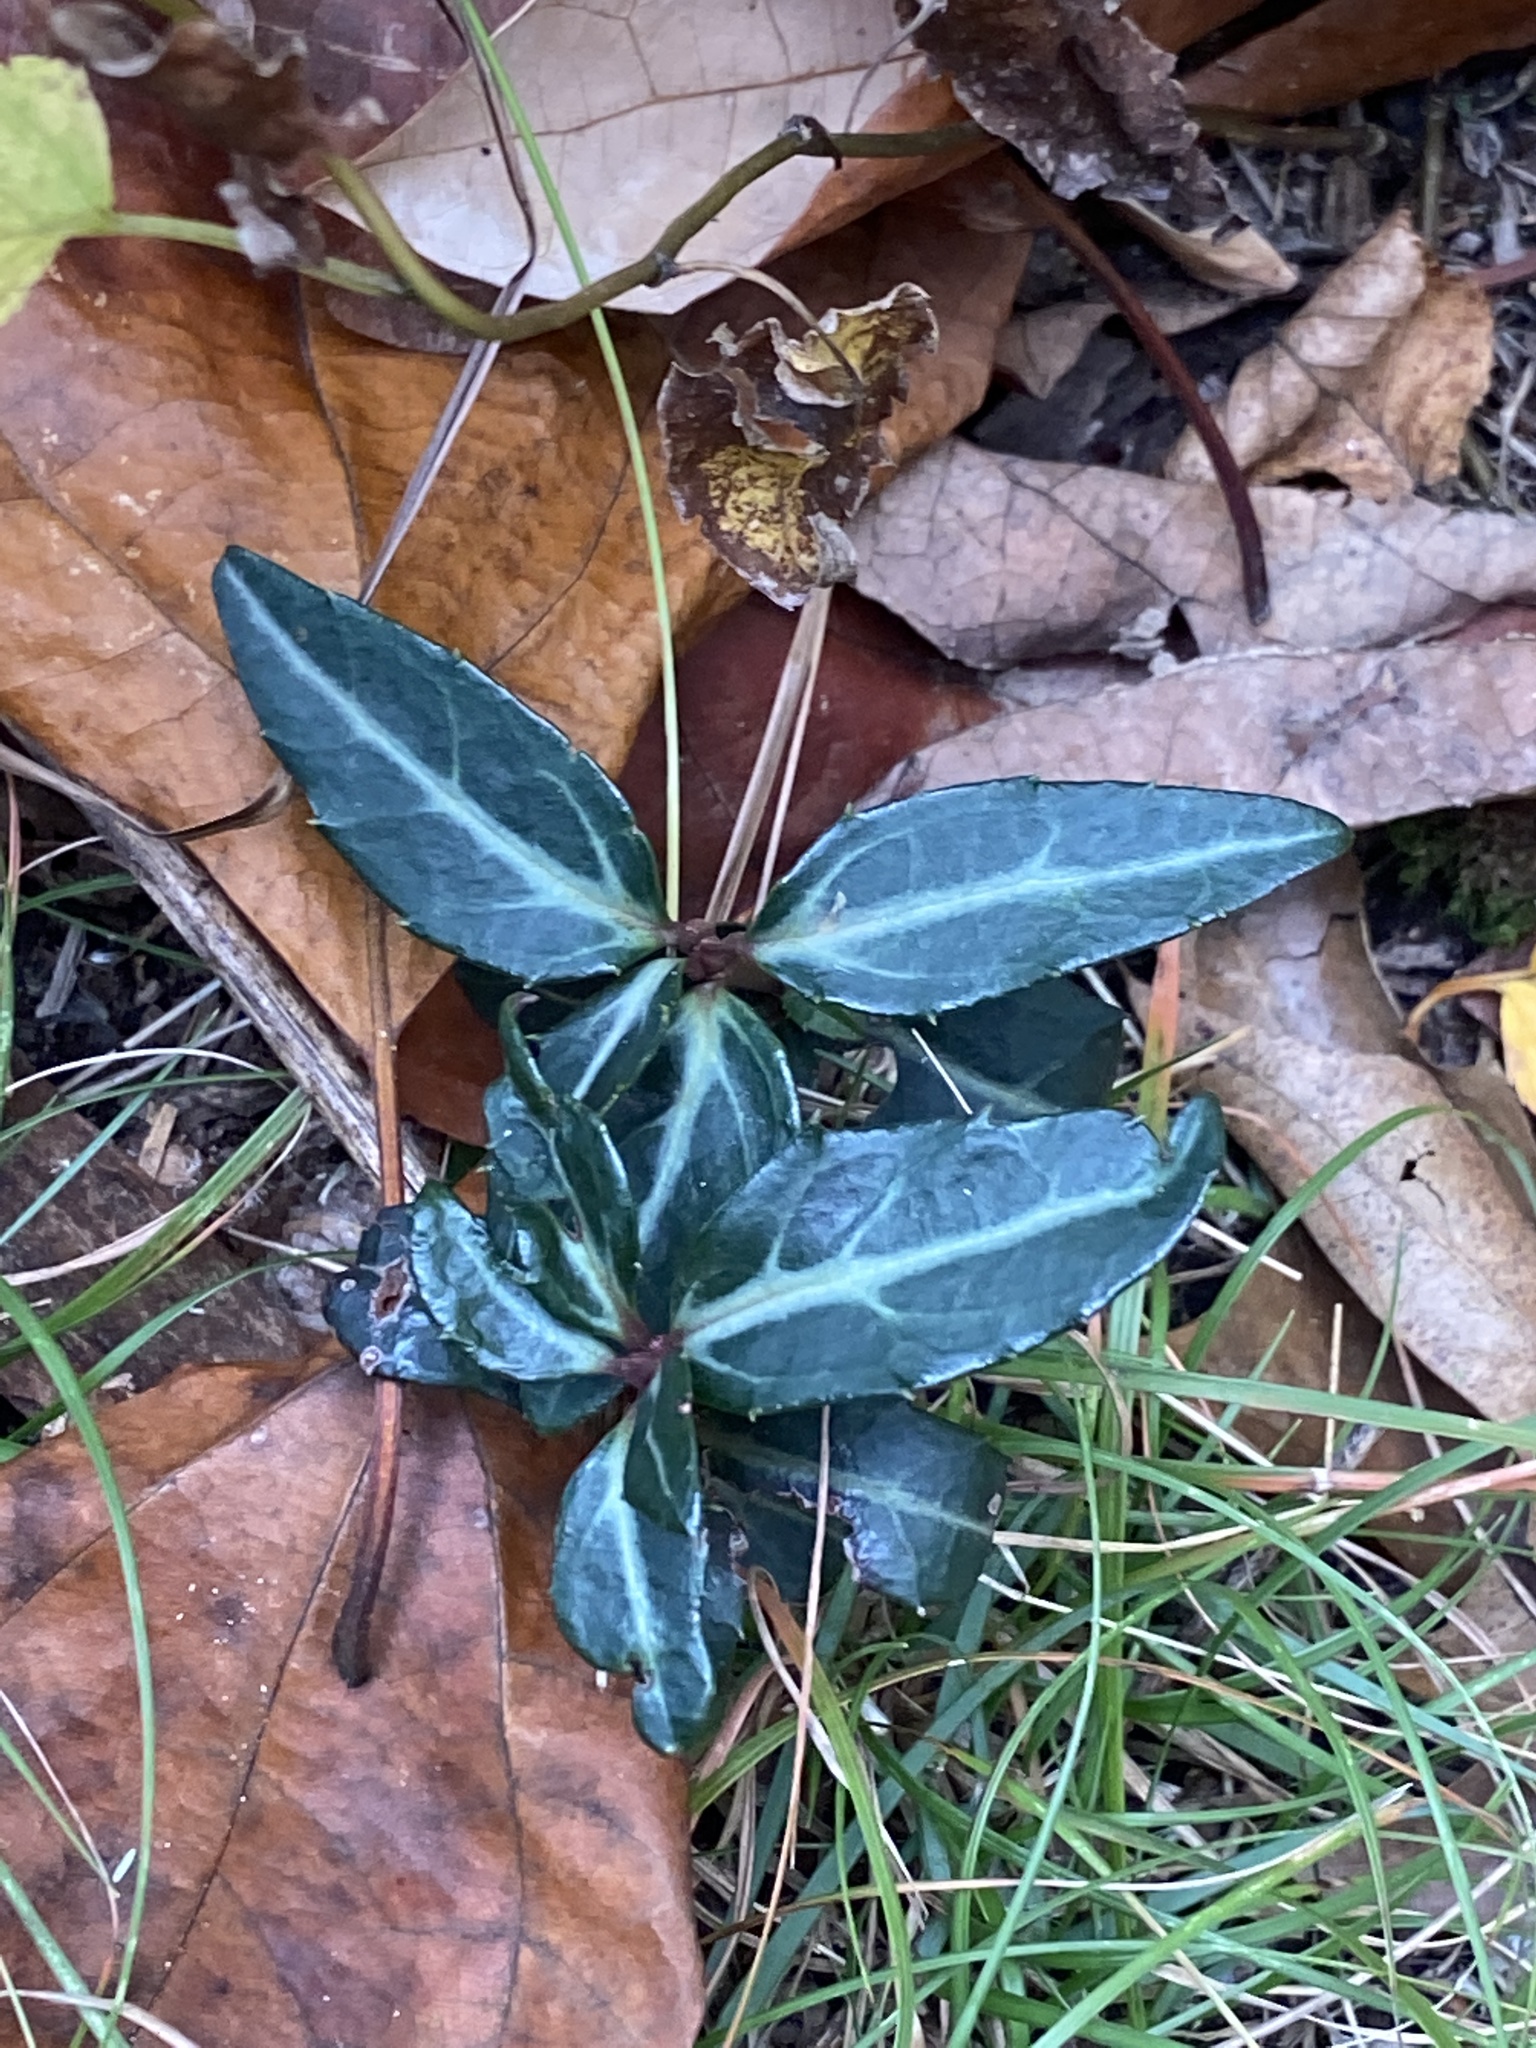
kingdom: Plantae
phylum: Tracheophyta
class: Magnoliopsida
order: Ericales
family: Ericaceae
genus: Chimaphila
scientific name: Chimaphila maculata
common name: Spotted pipsissewa
